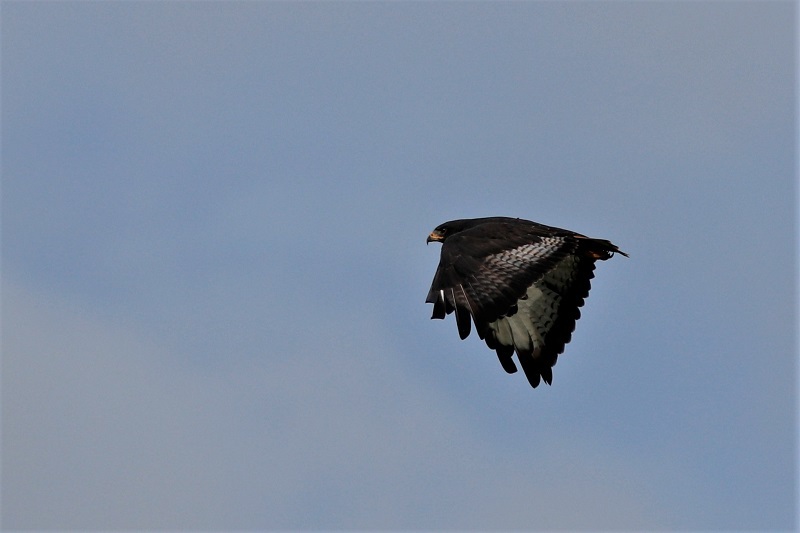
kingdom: Animalia
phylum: Chordata
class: Aves
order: Accipitriformes
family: Accipitridae
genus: Buteo
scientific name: Buteo rufofuscus
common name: Jackal buzzard
